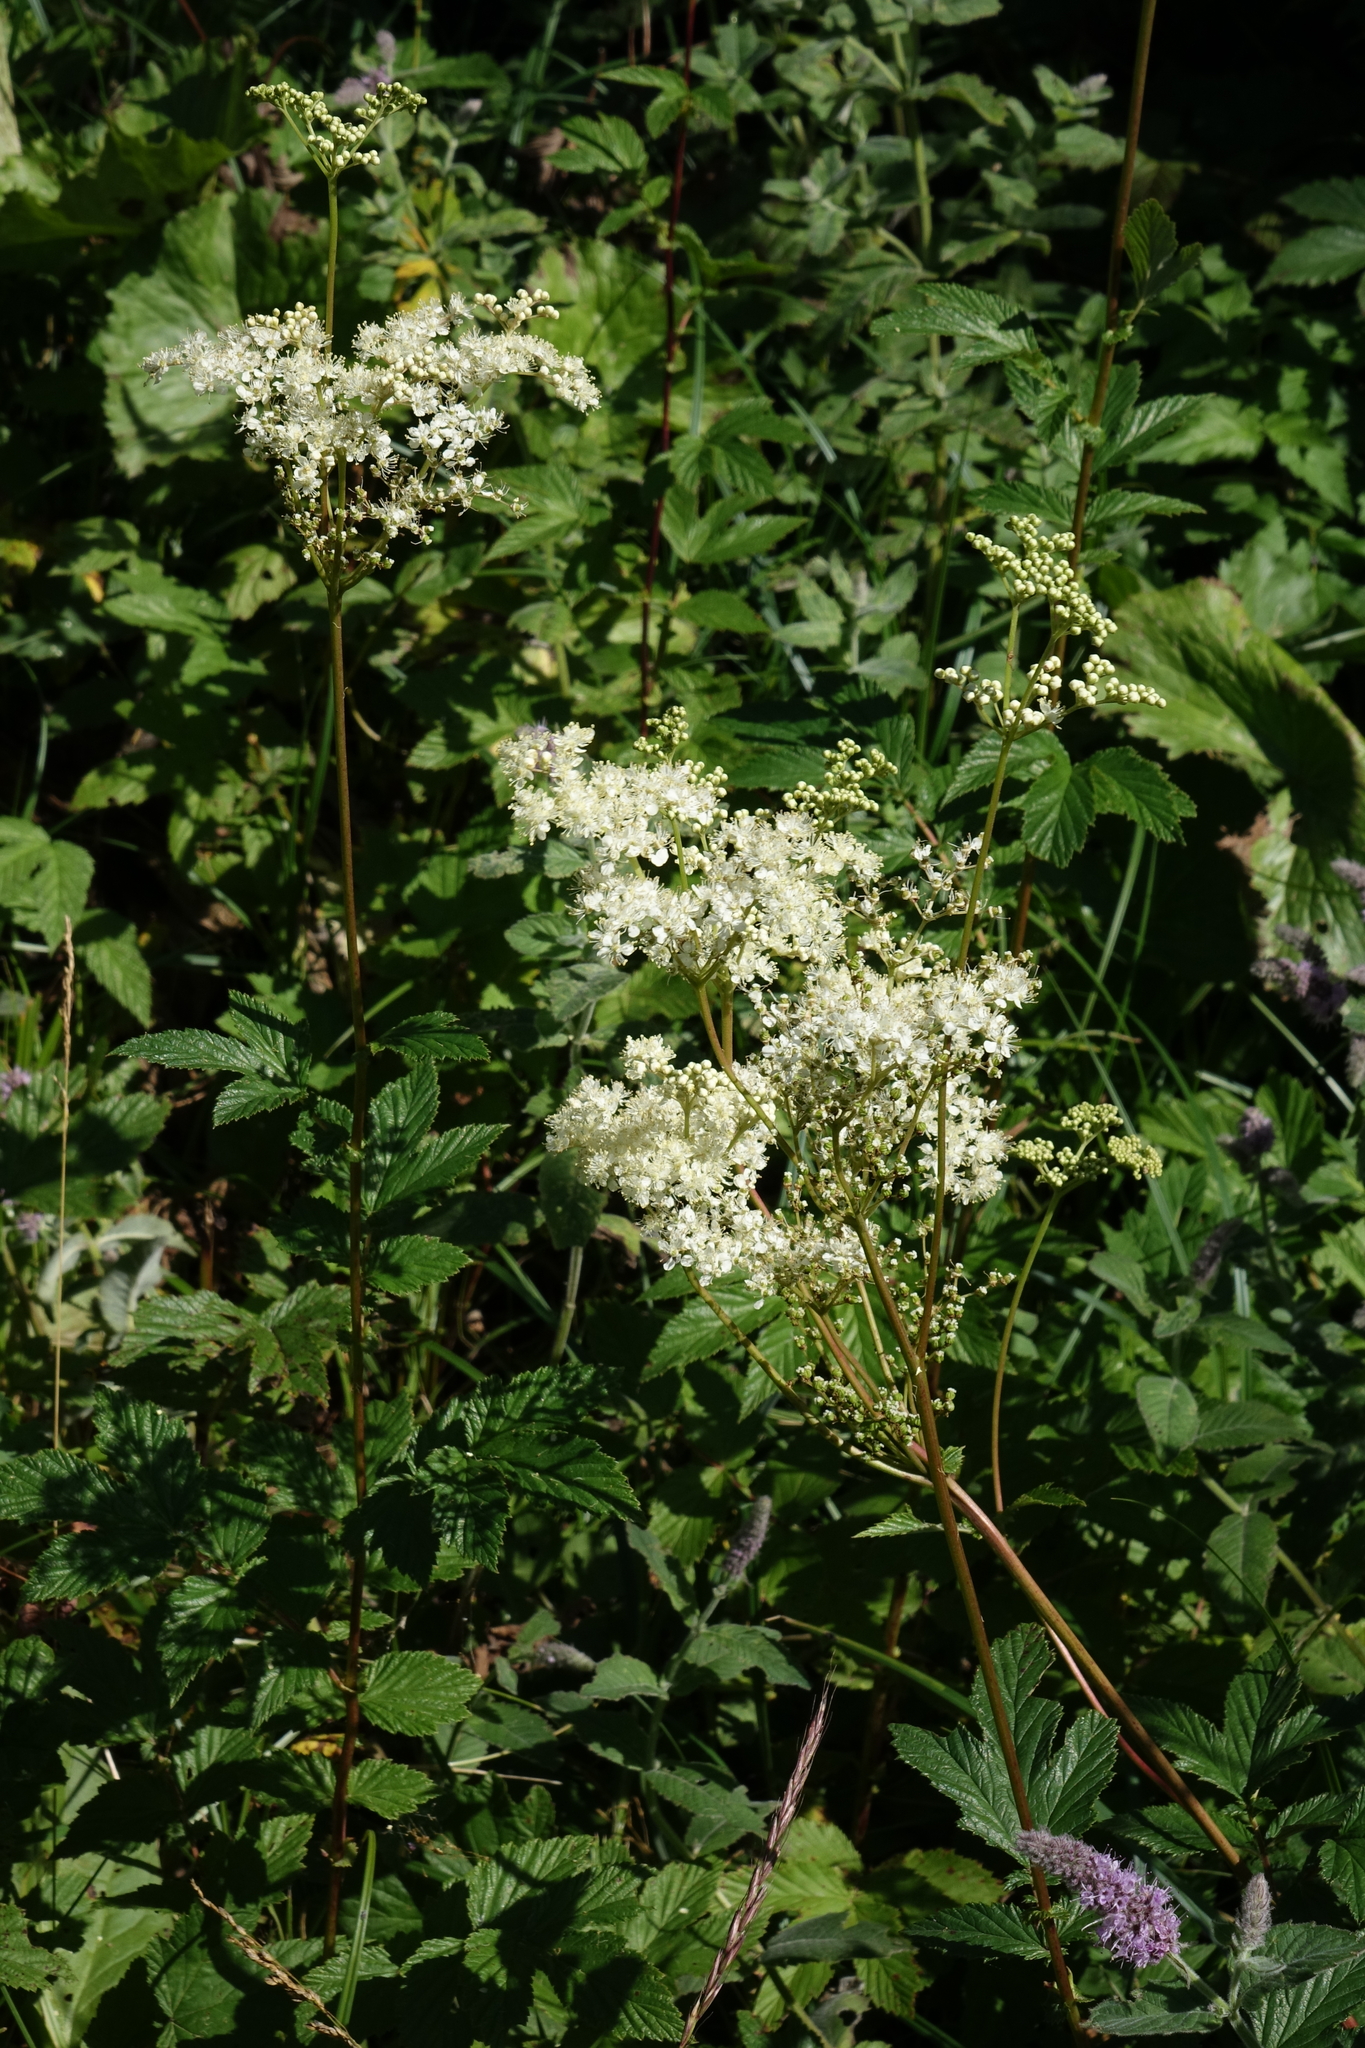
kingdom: Plantae
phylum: Tracheophyta
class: Magnoliopsida
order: Rosales
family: Rosaceae
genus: Filipendula
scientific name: Filipendula ulmaria
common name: Meadowsweet
